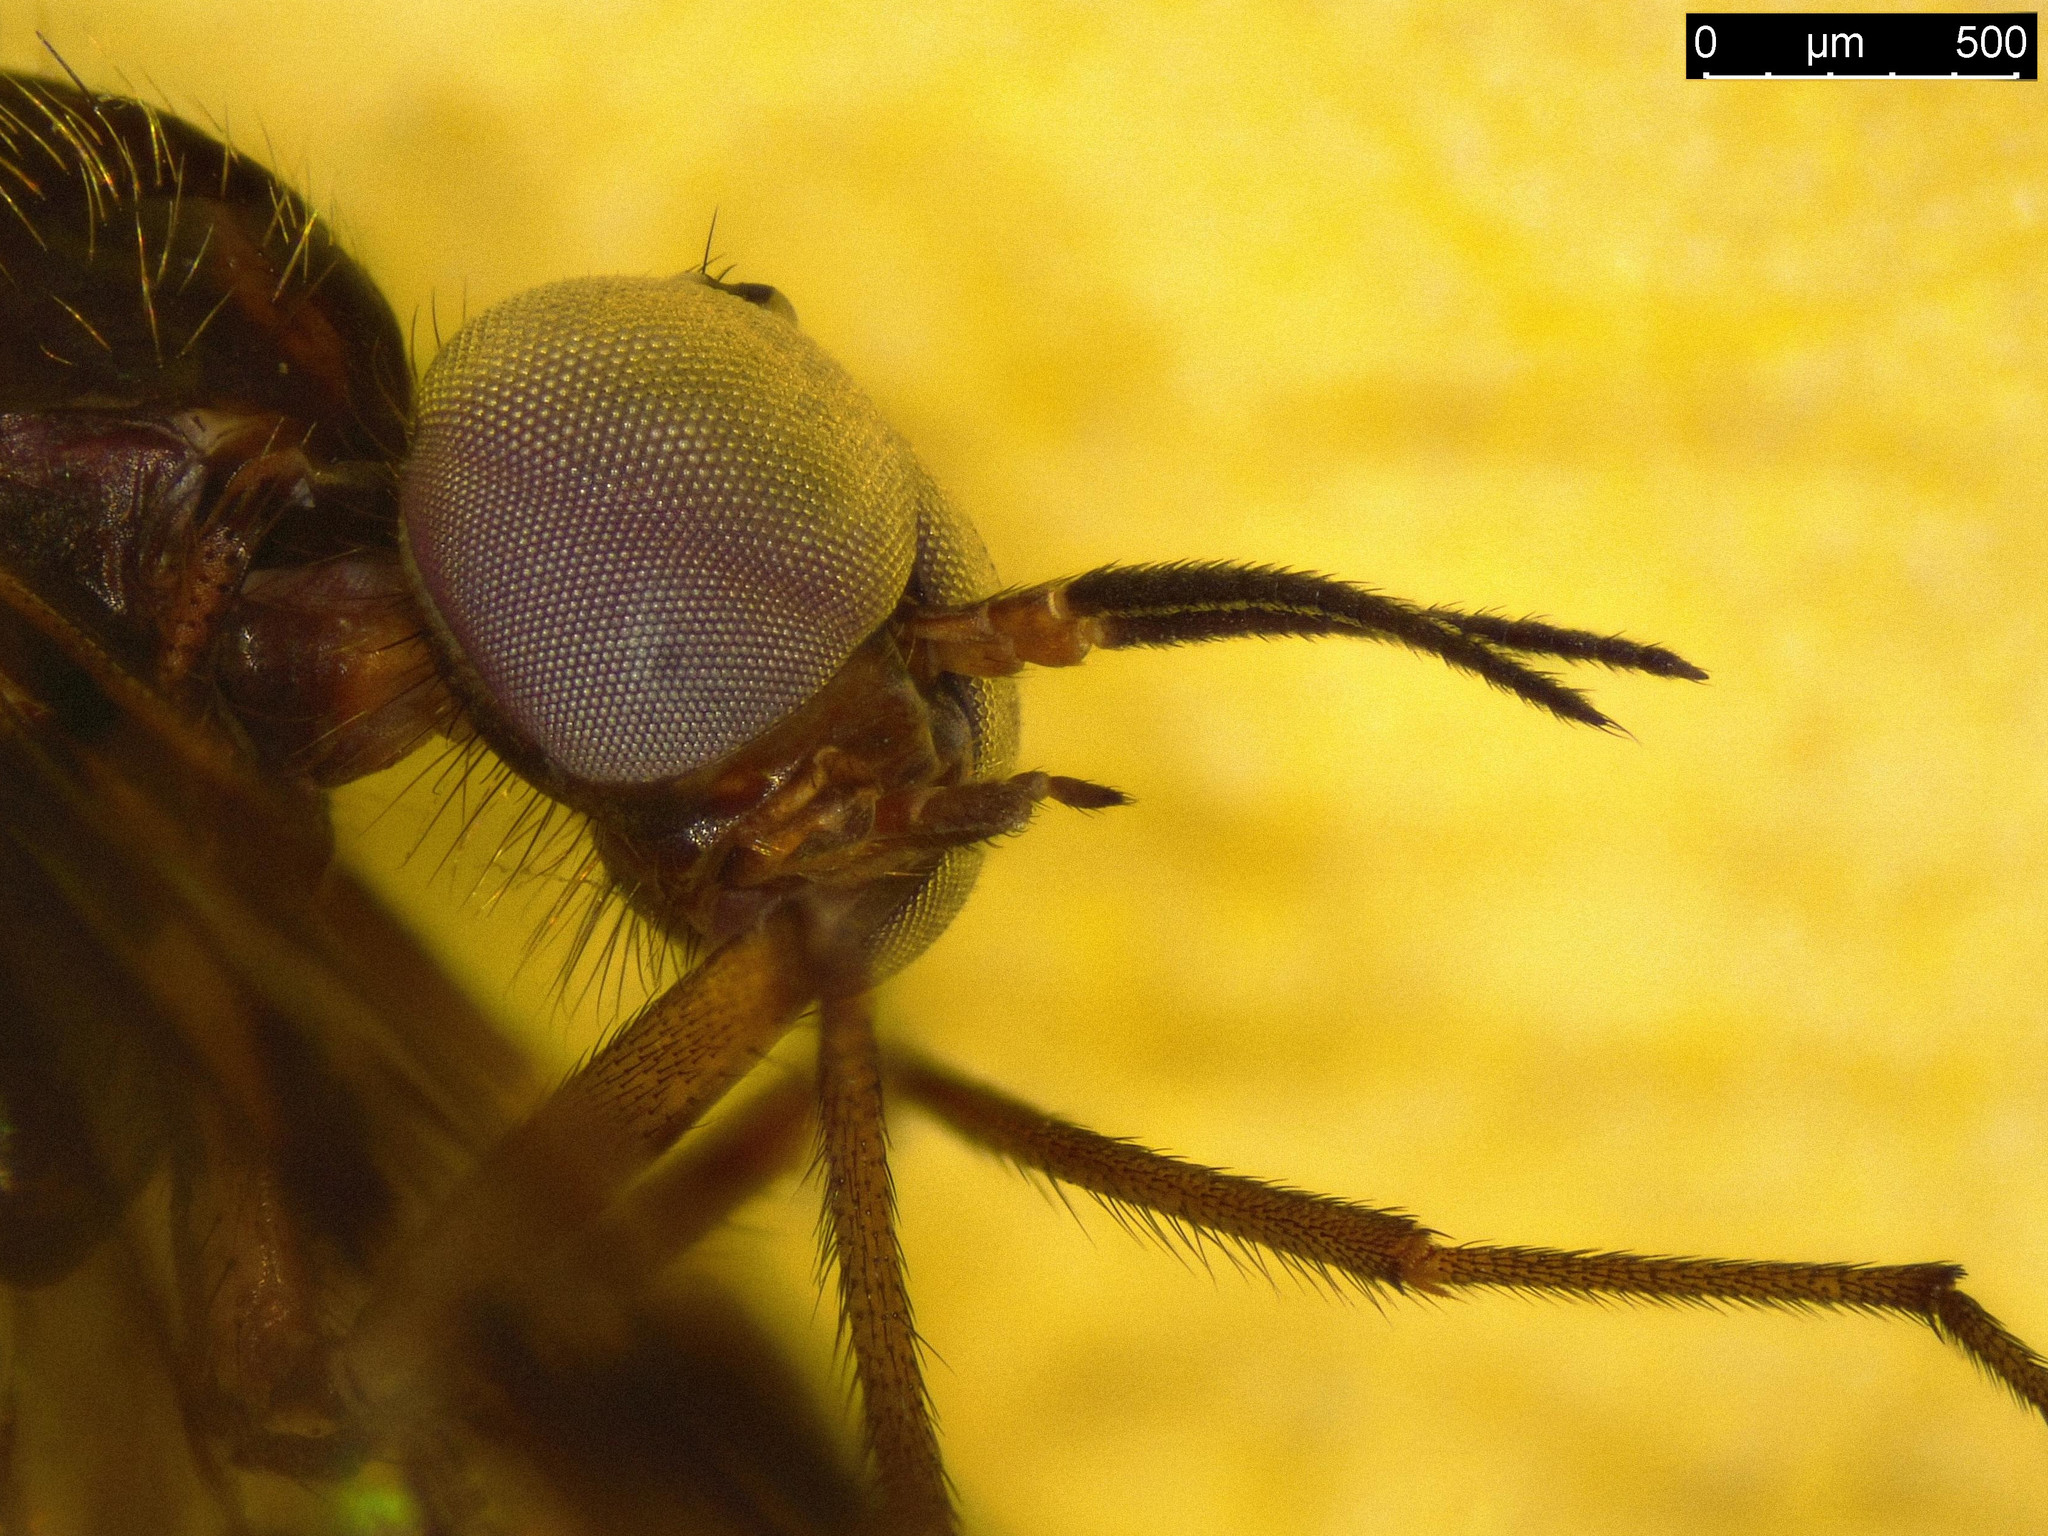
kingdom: Animalia
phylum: Arthropoda
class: Insecta
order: Diptera
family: Anisopodidae
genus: Sylvicola
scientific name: Sylvicola dubius
